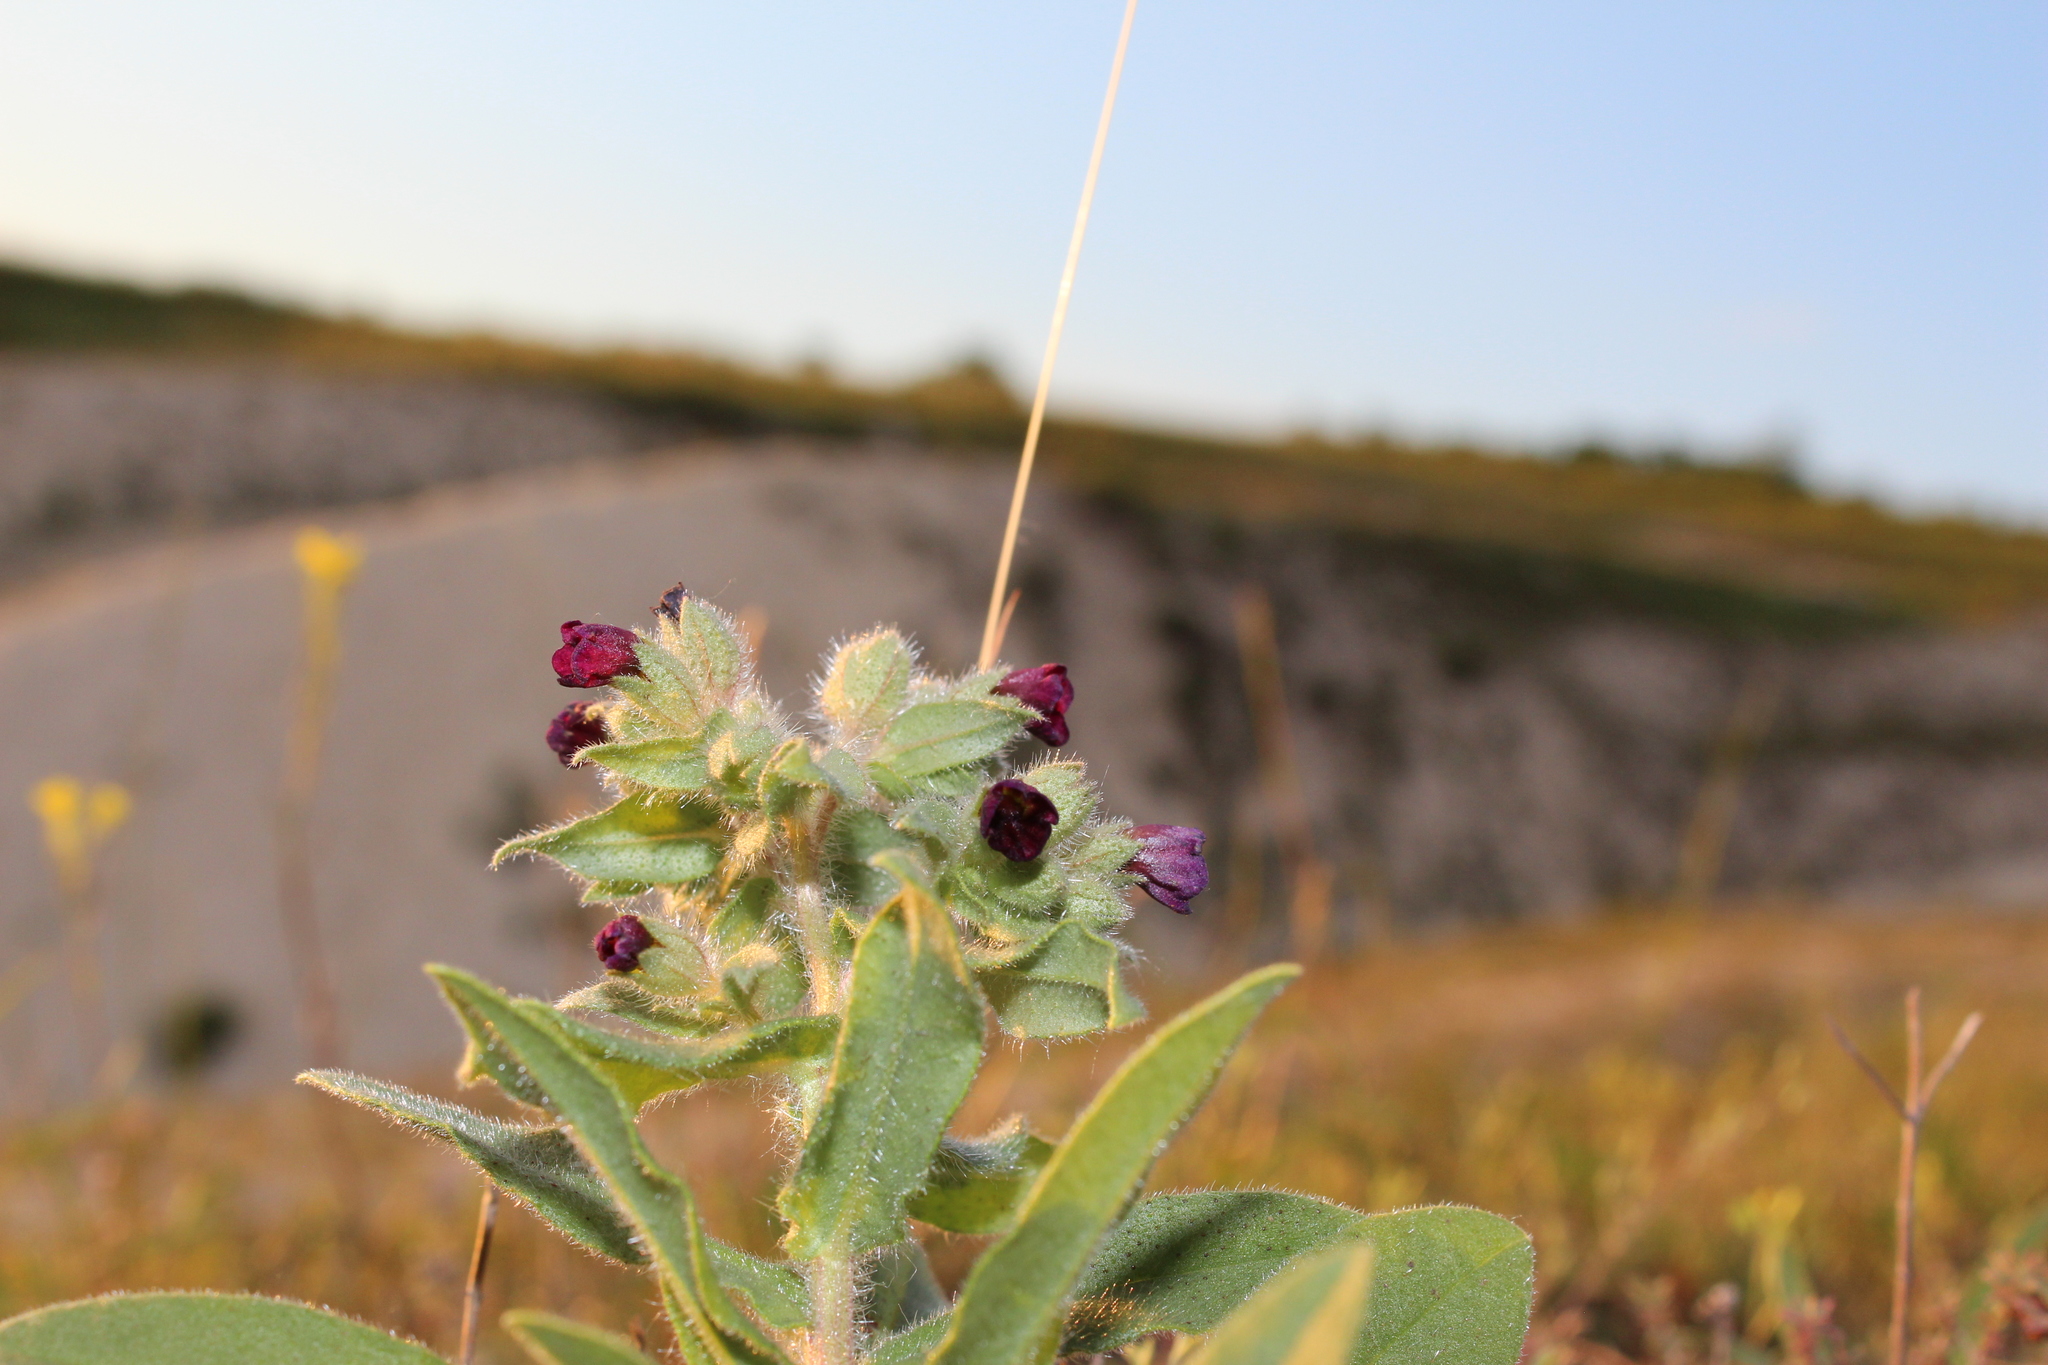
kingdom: Plantae
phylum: Tracheophyta
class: Magnoliopsida
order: Boraginales
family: Boraginaceae
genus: Nonea
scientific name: Nonea pulla
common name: Brown nonea
